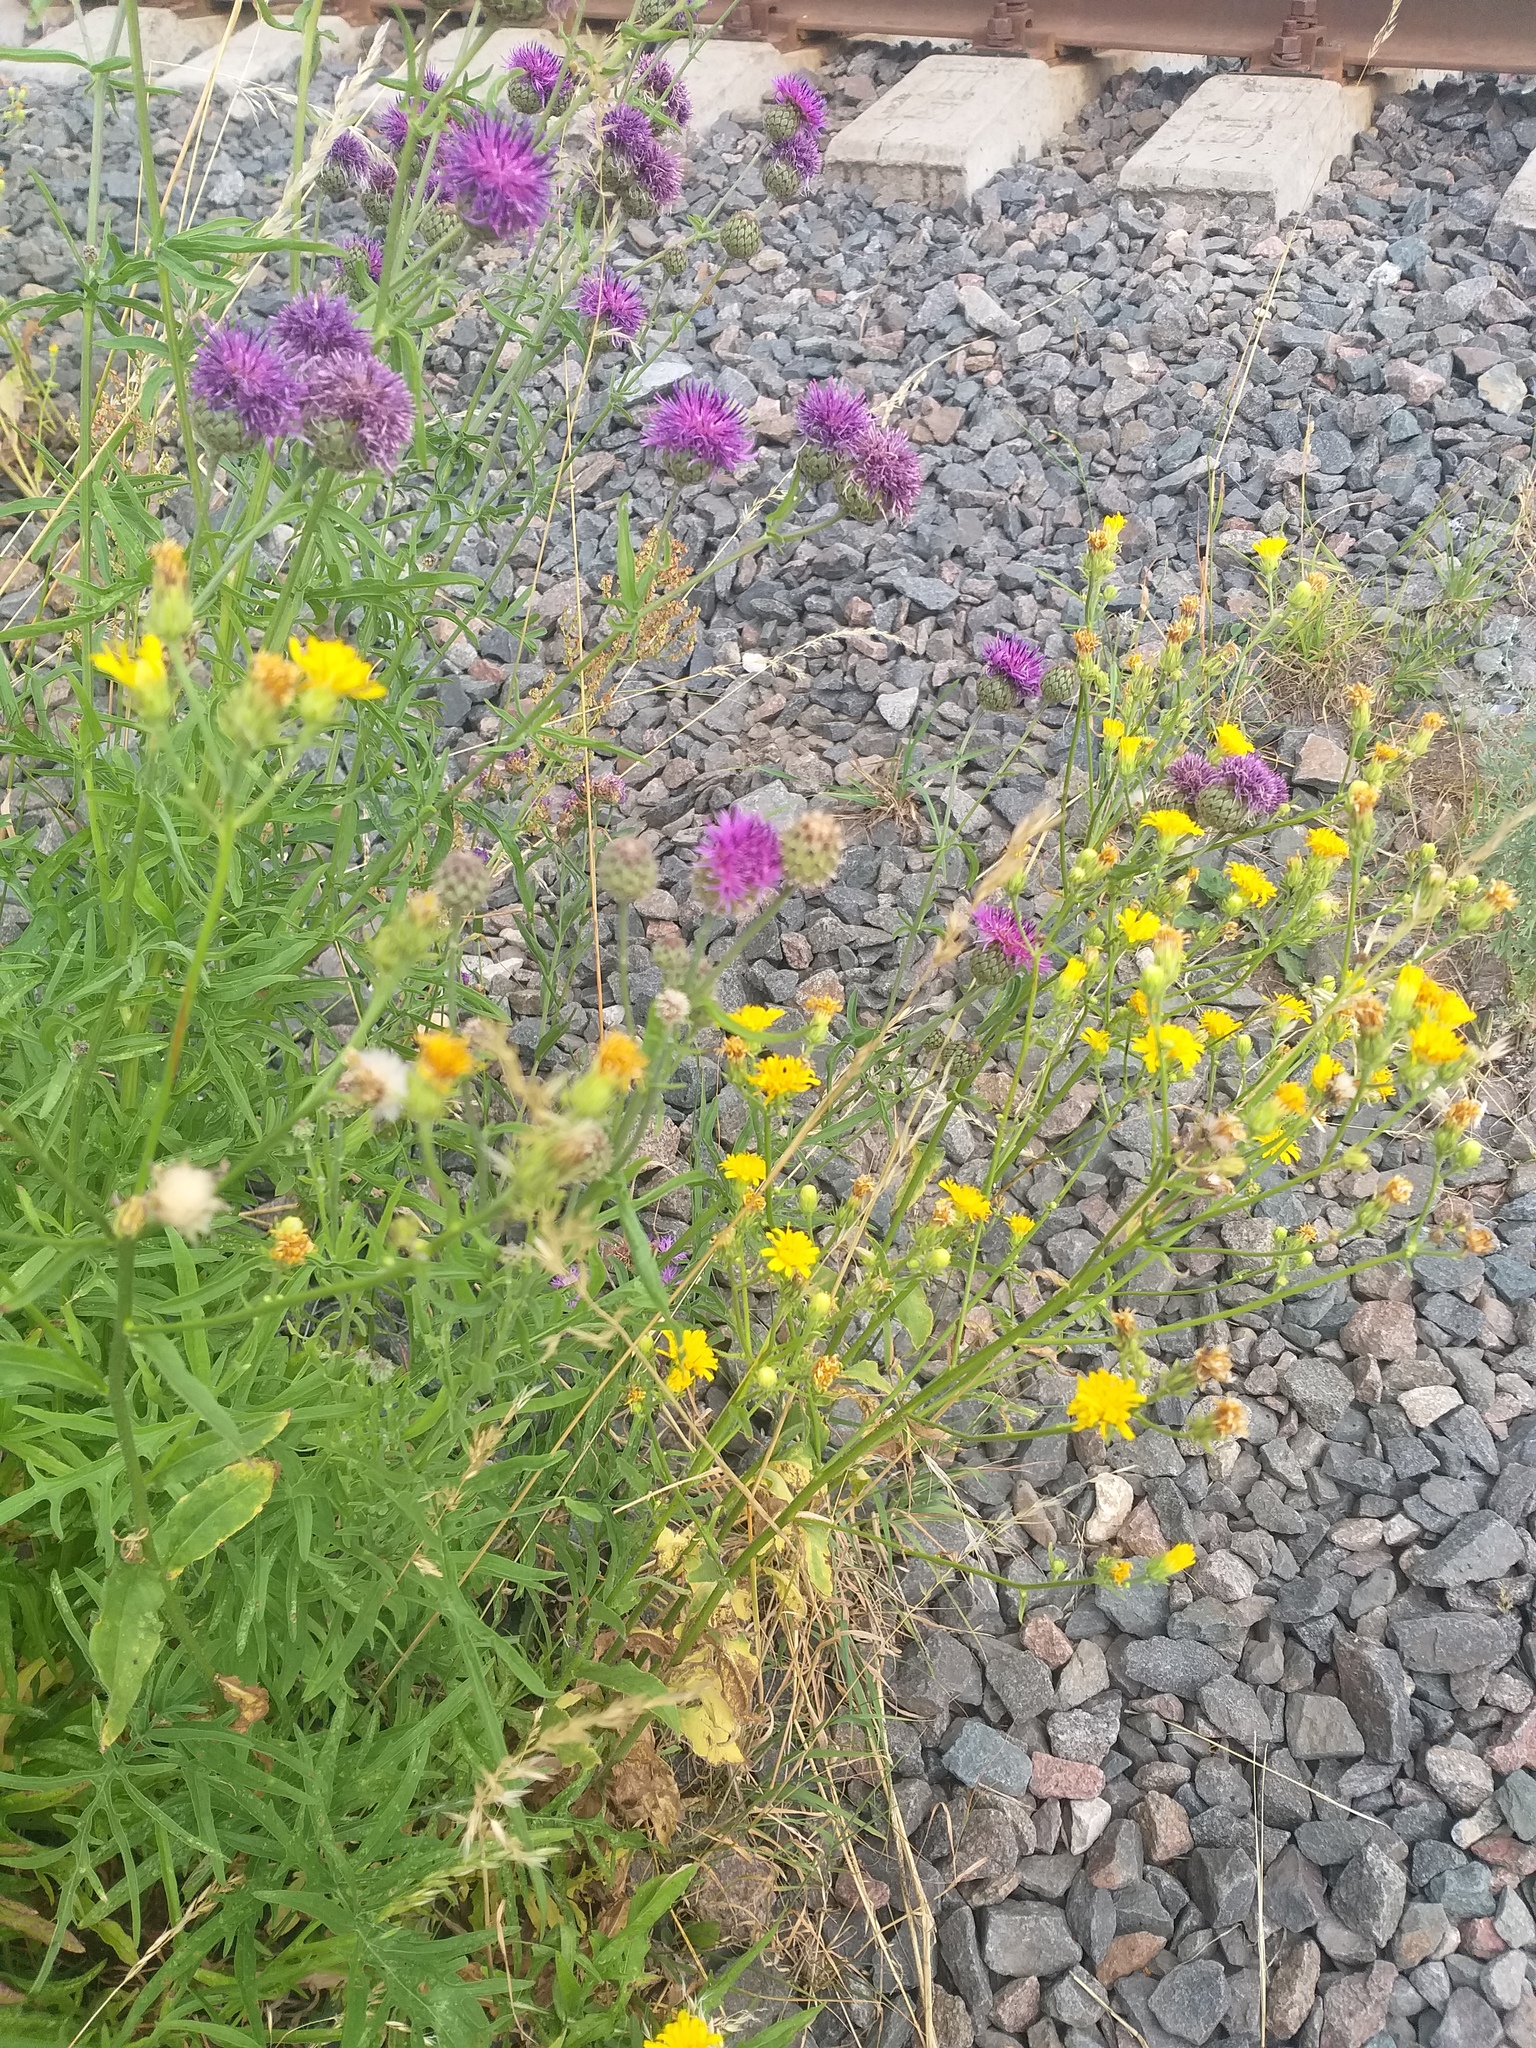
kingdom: Plantae
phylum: Tracheophyta
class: Magnoliopsida
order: Asterales
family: Asteraceae
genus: Picris
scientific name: Picris hieracioides
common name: Hawkweed oxtongue
